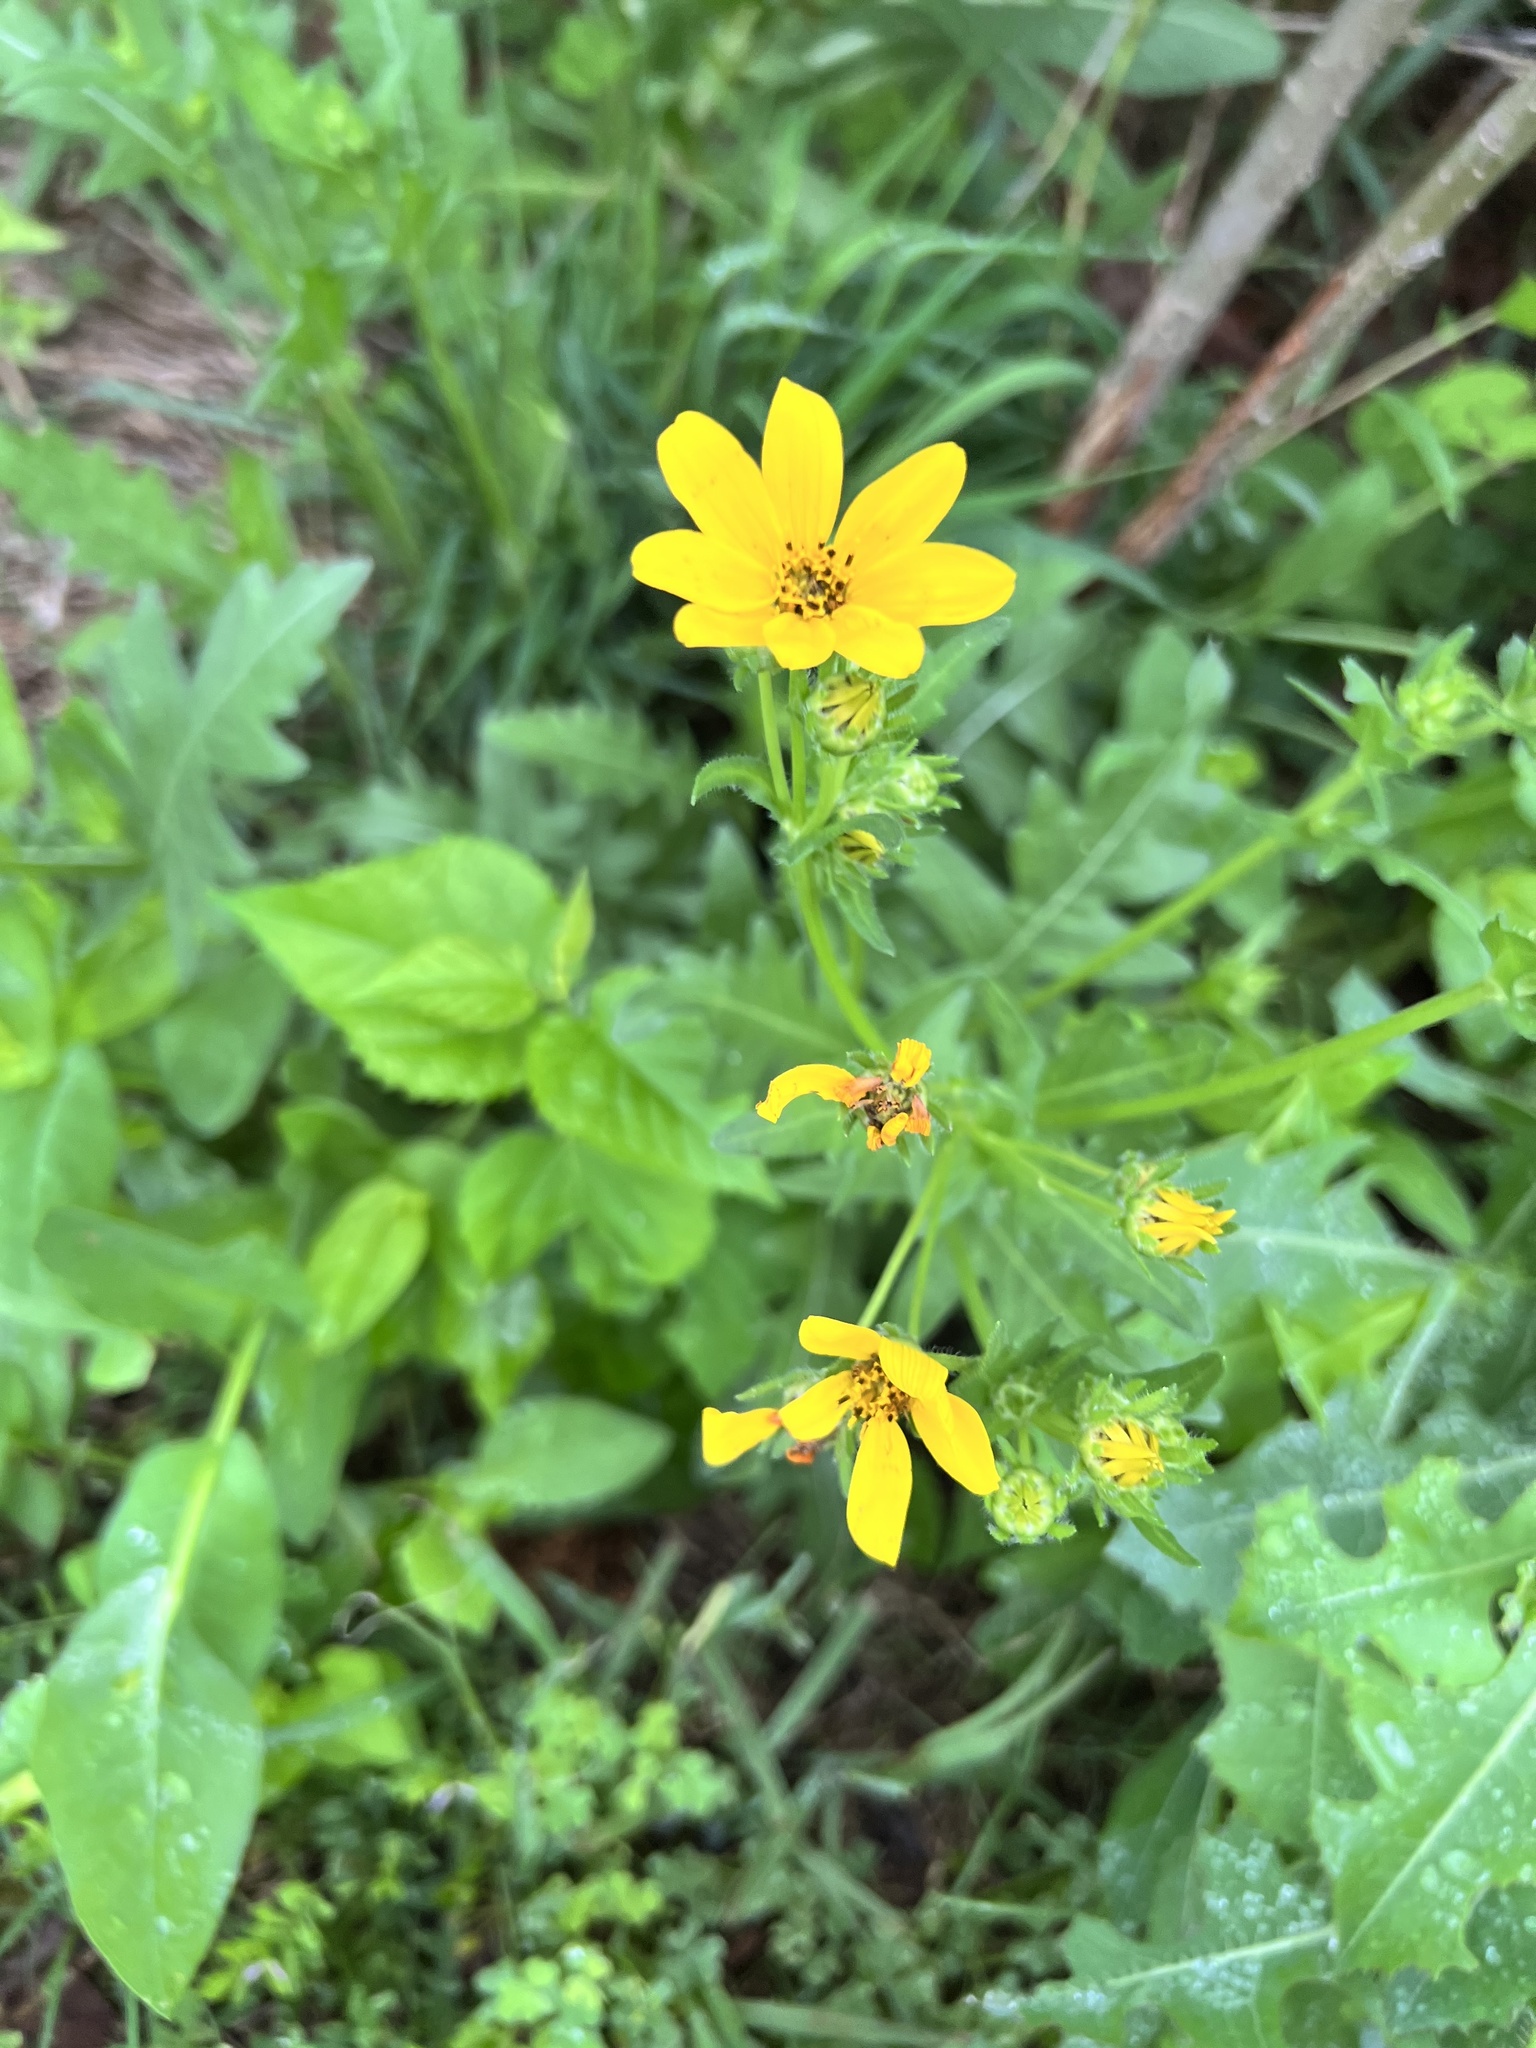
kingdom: Plantae
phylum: Tracheophyta
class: Magnoliopsida
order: Asterales
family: Asteraceae
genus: Engelmannia
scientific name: Engelmannia peristenia
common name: Engelmann's daisy
